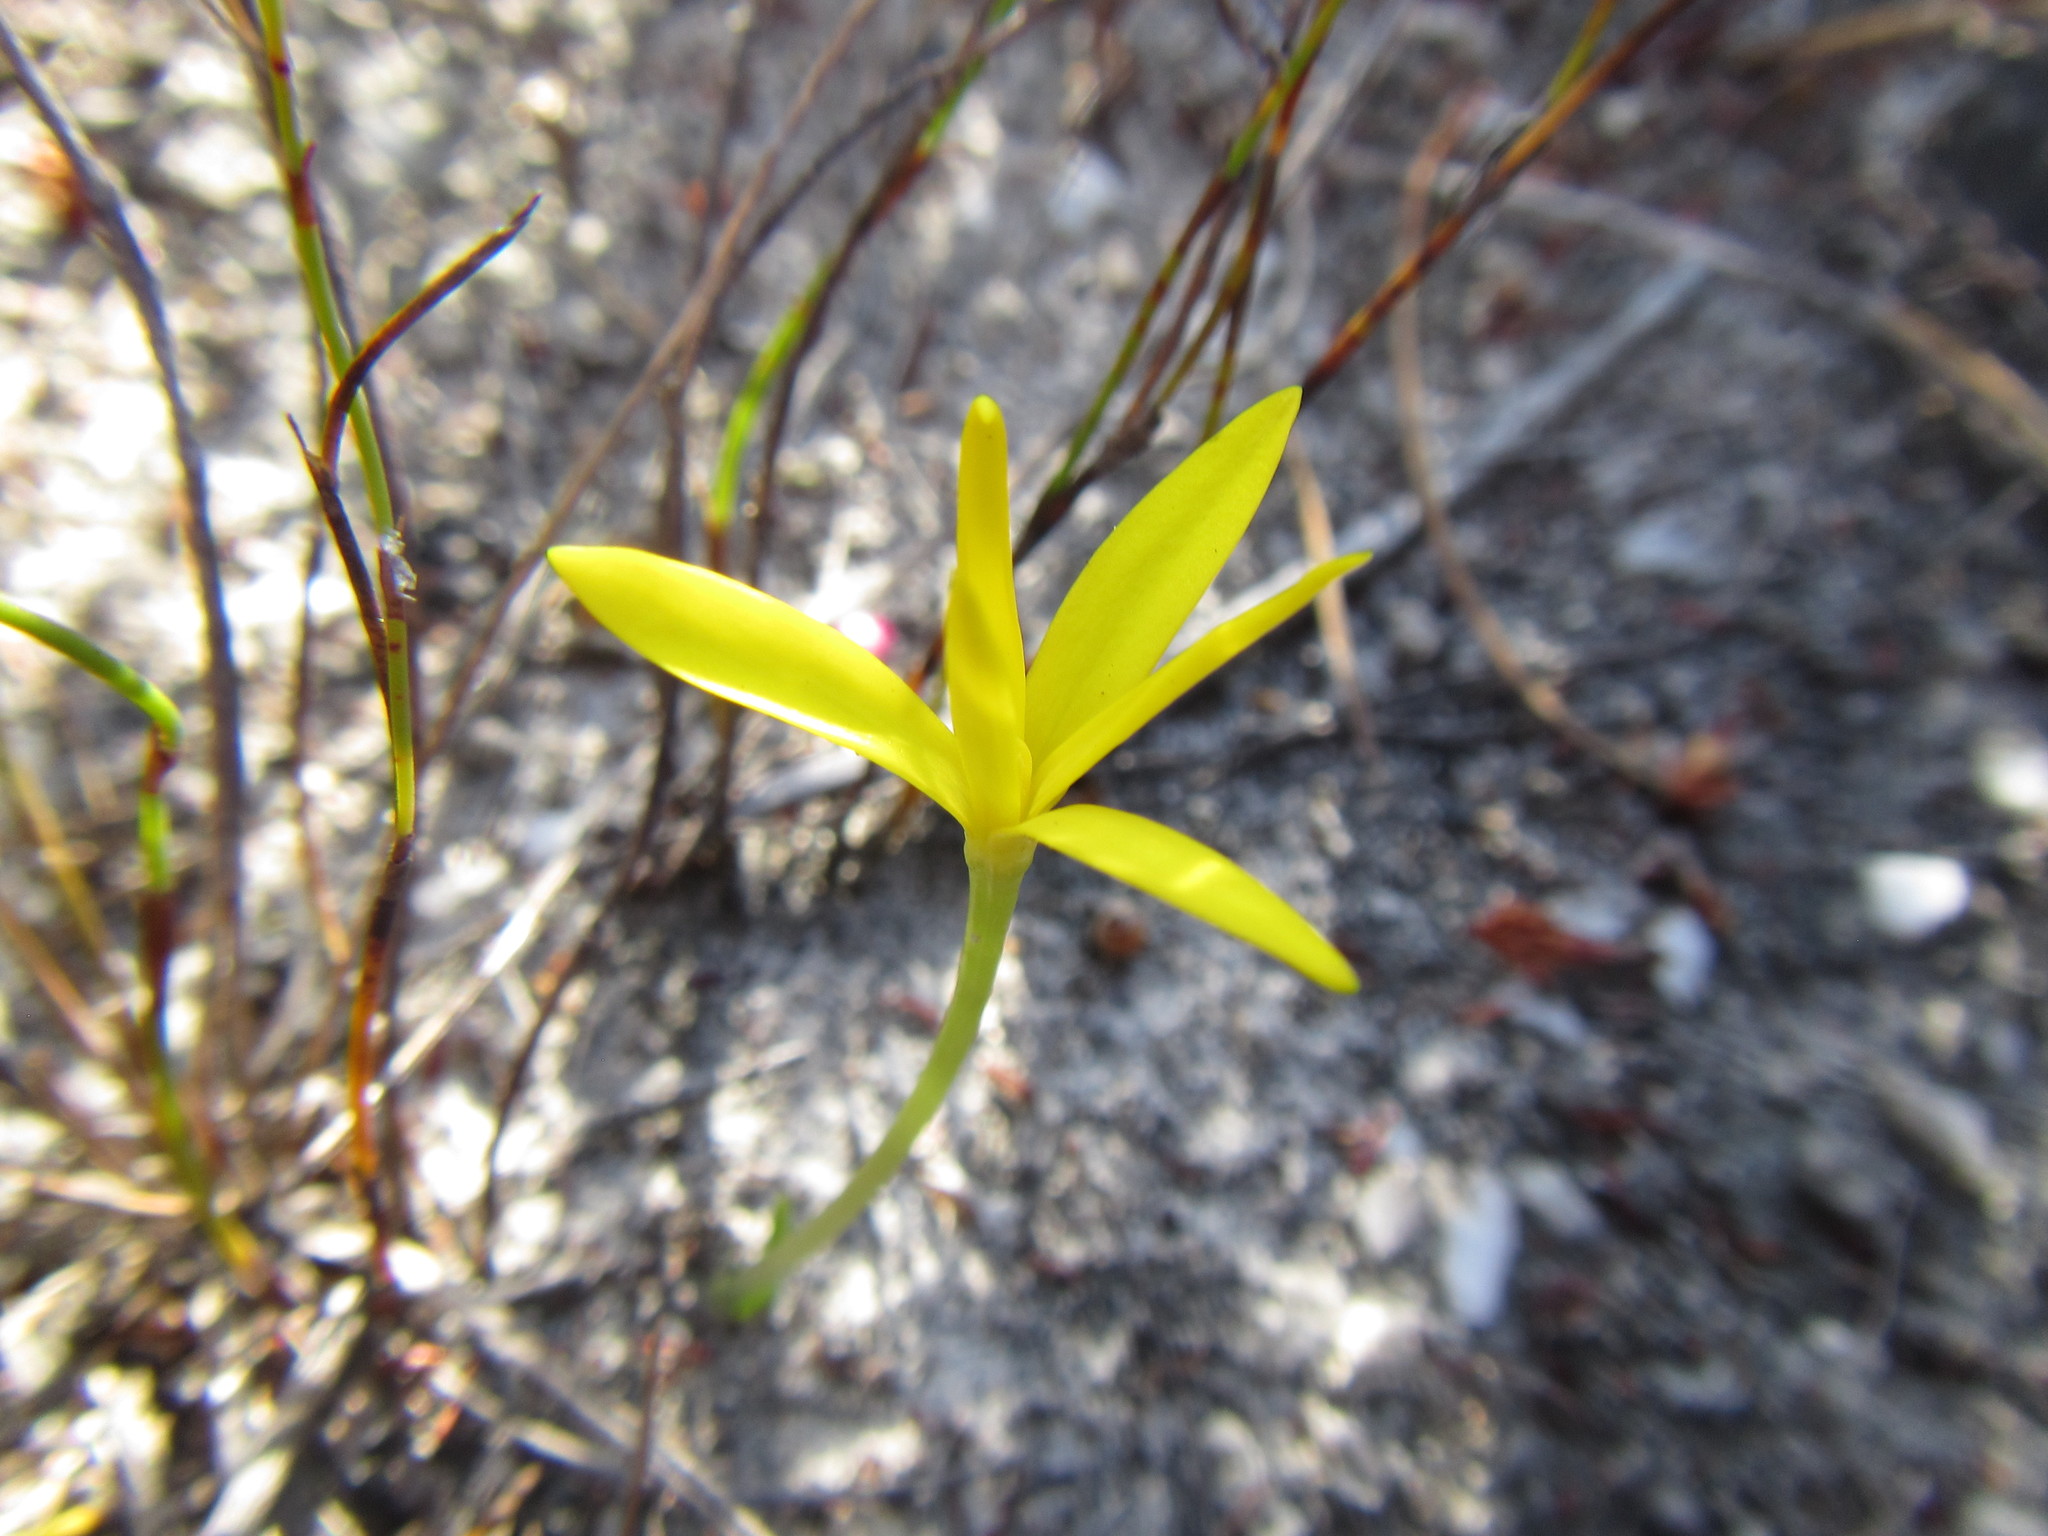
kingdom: Plantae
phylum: Tracheophyta
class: Liliopsida
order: Asparagales
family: Hypoxidaceae
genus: Pauridia
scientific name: Pauridia monophylla
